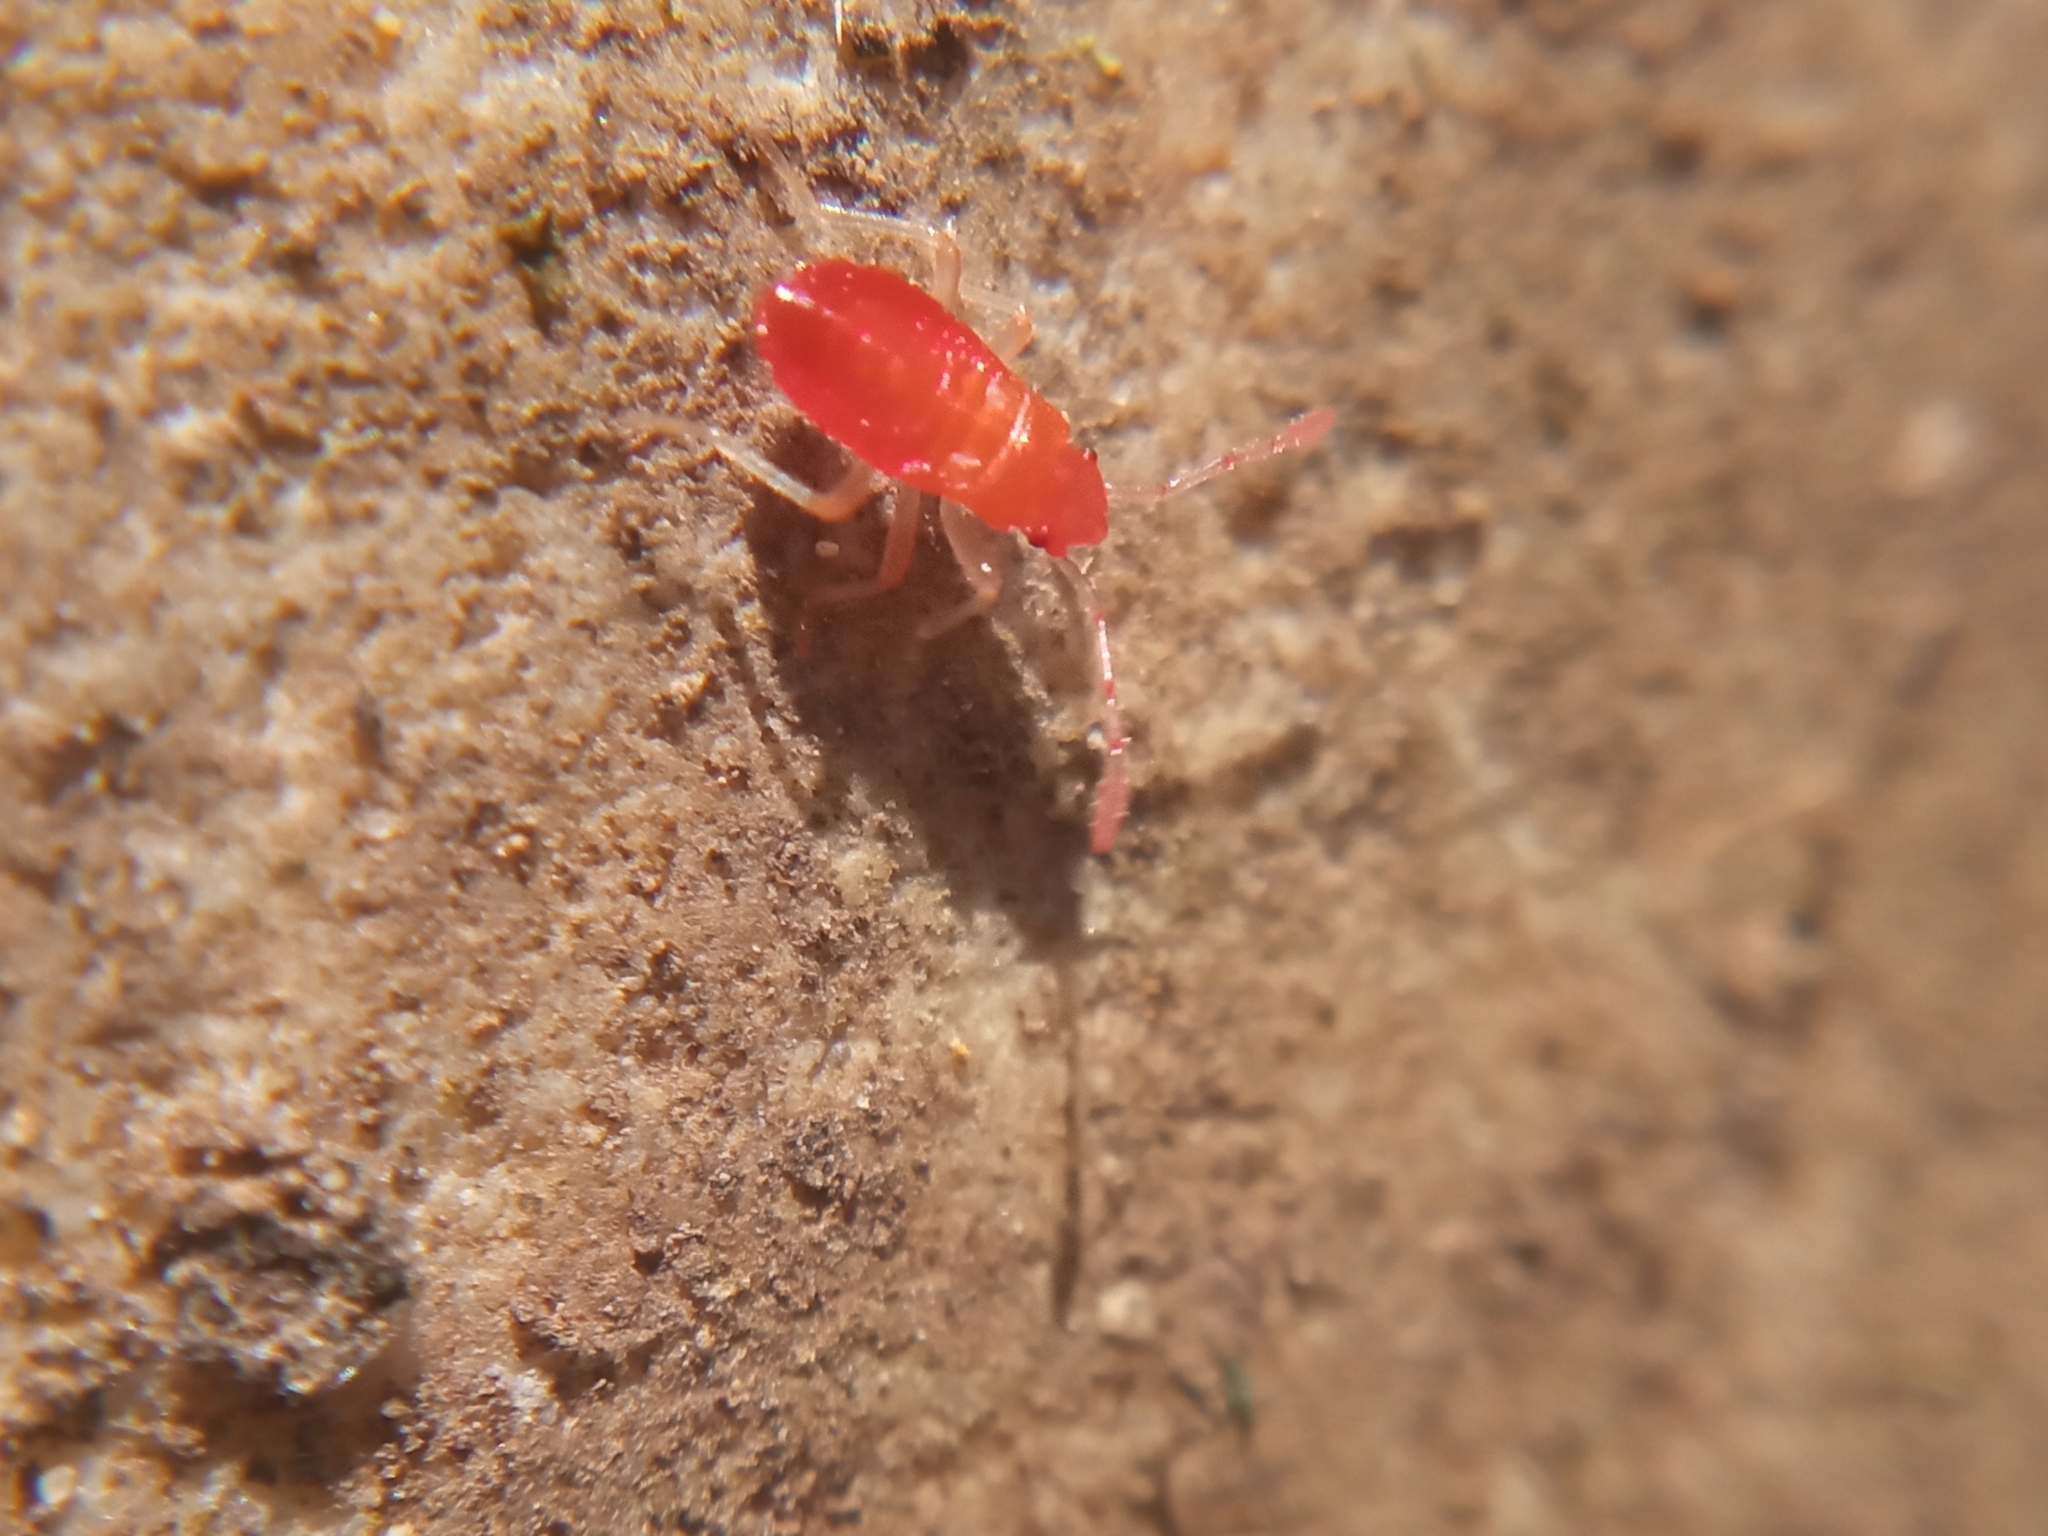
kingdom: Animalia
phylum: Arthropoda
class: Insecta
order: Hemiptera
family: Pyrrhocoridae
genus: Pyrrhocoris
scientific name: Pyrrhocoris apterus
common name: Firebug
